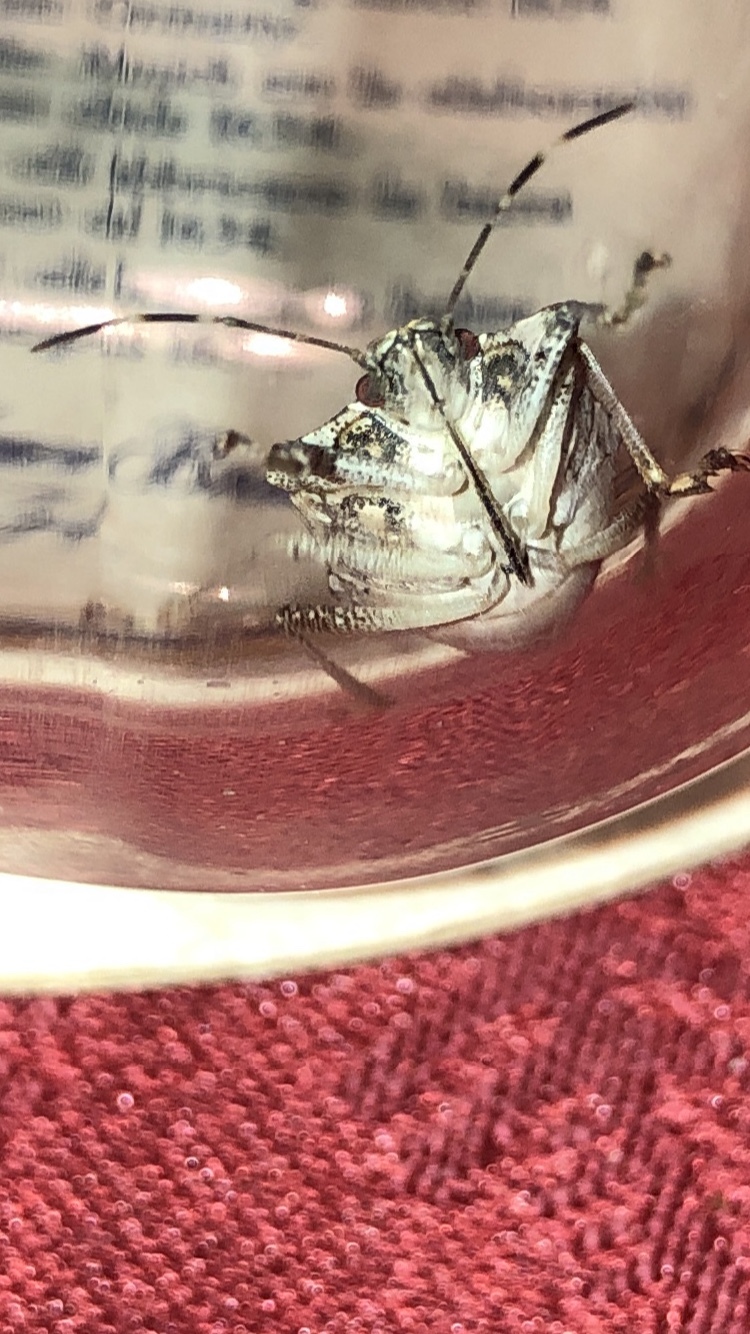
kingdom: Animalia
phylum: Arthropoda
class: Insecta
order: Hemiptera
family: Pentatomidae
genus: Halyomorpha
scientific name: Halyomorpha halys
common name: Brown marmorated stink bug
